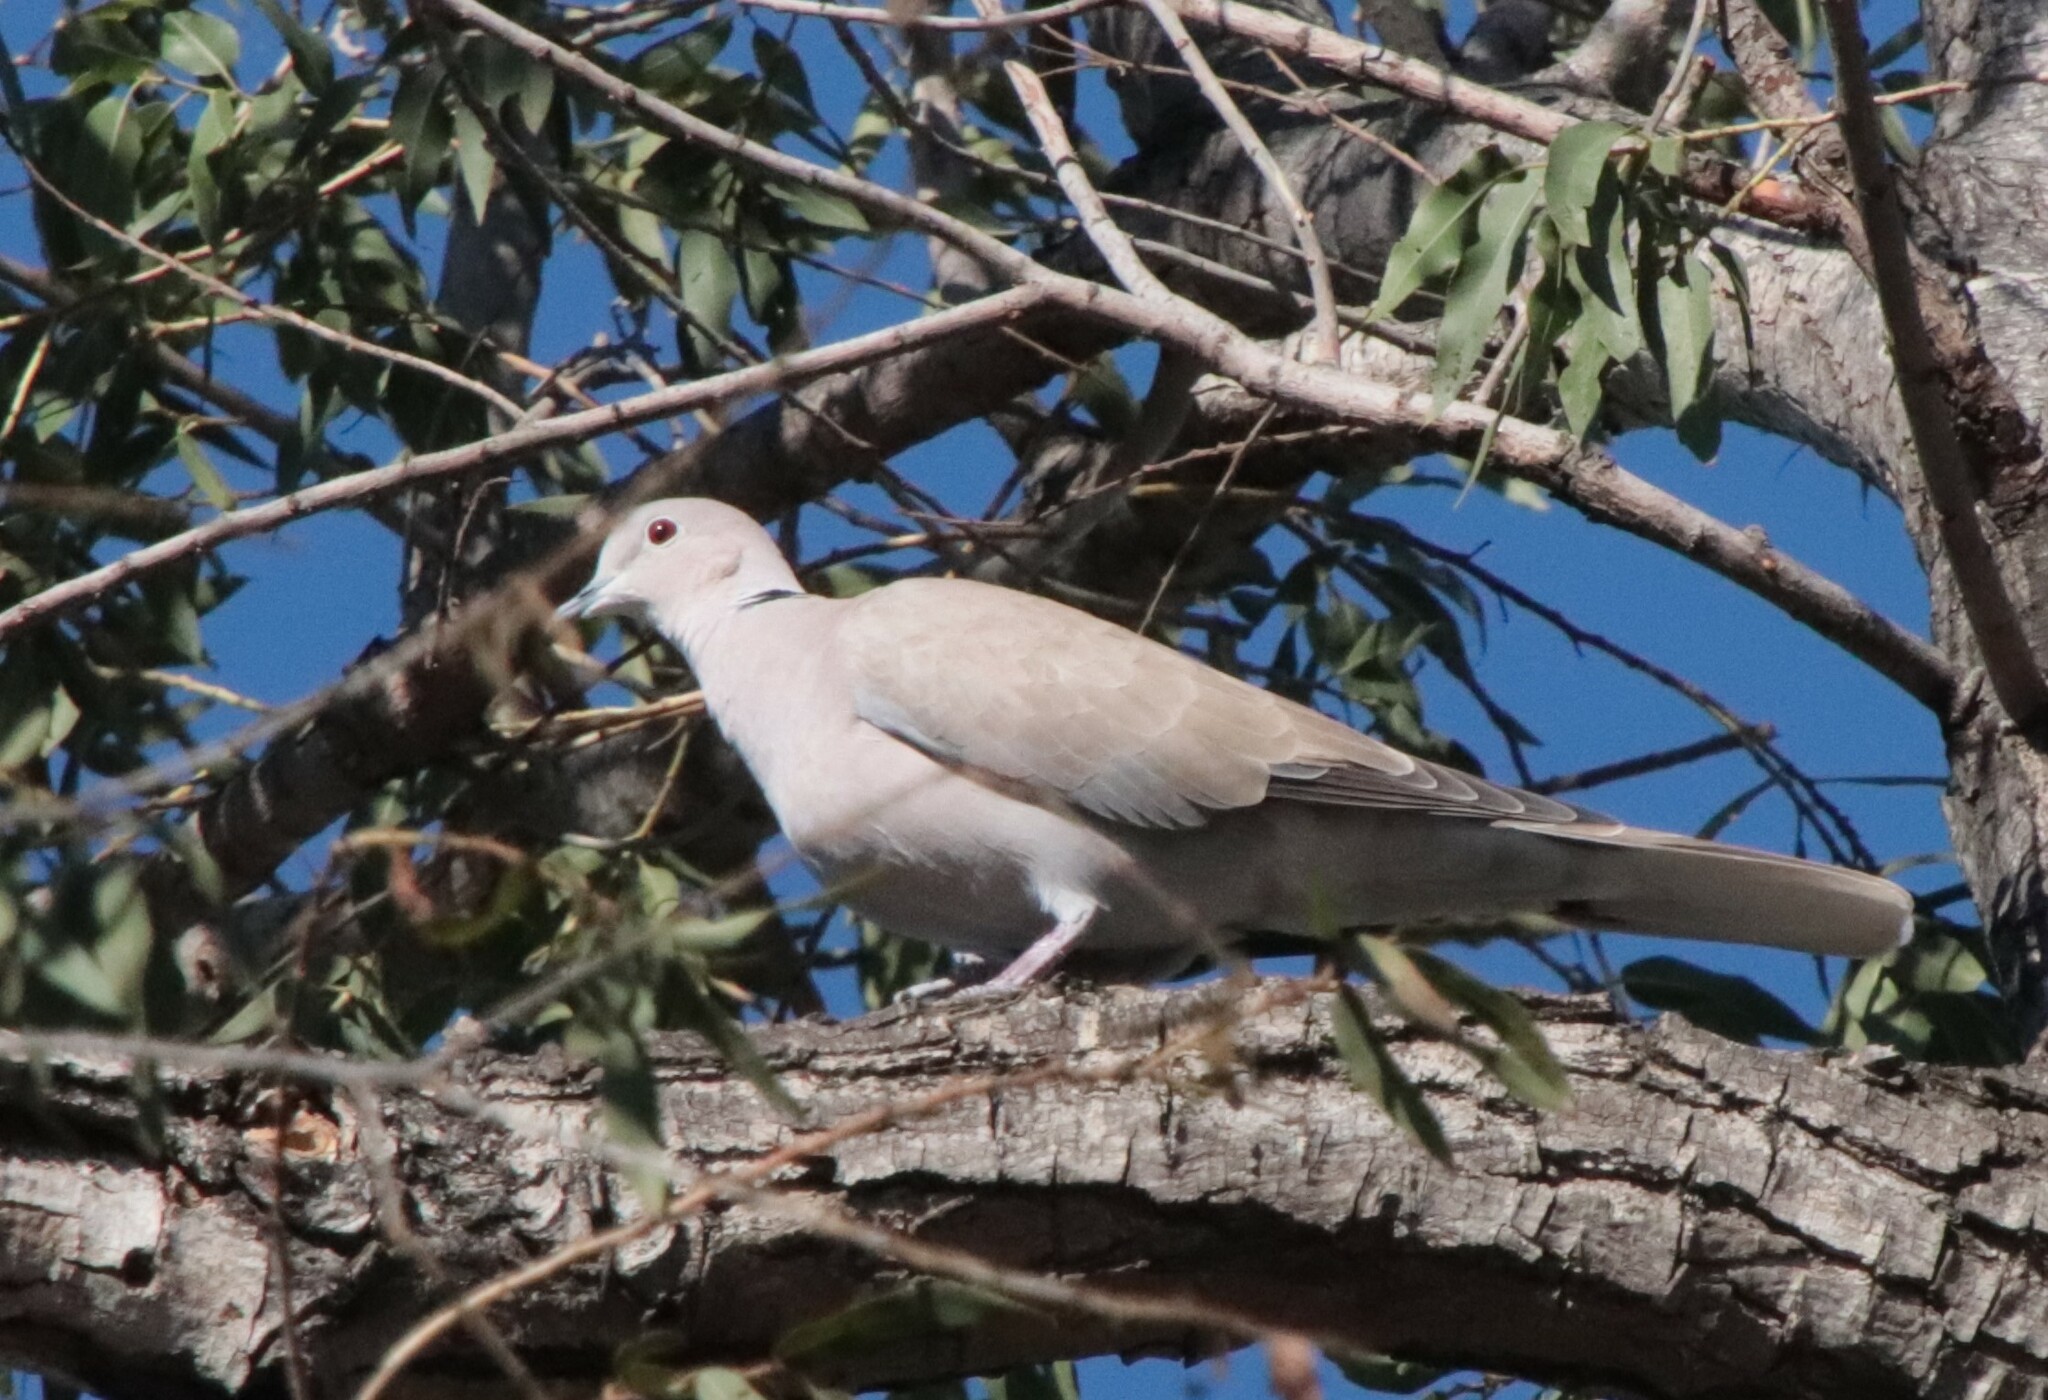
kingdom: Animalia
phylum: Chordata
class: Aves
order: Columbiformes
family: Columbidae
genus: Streptopelia
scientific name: Streptopelia decaocto
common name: Eurasian collared dove
